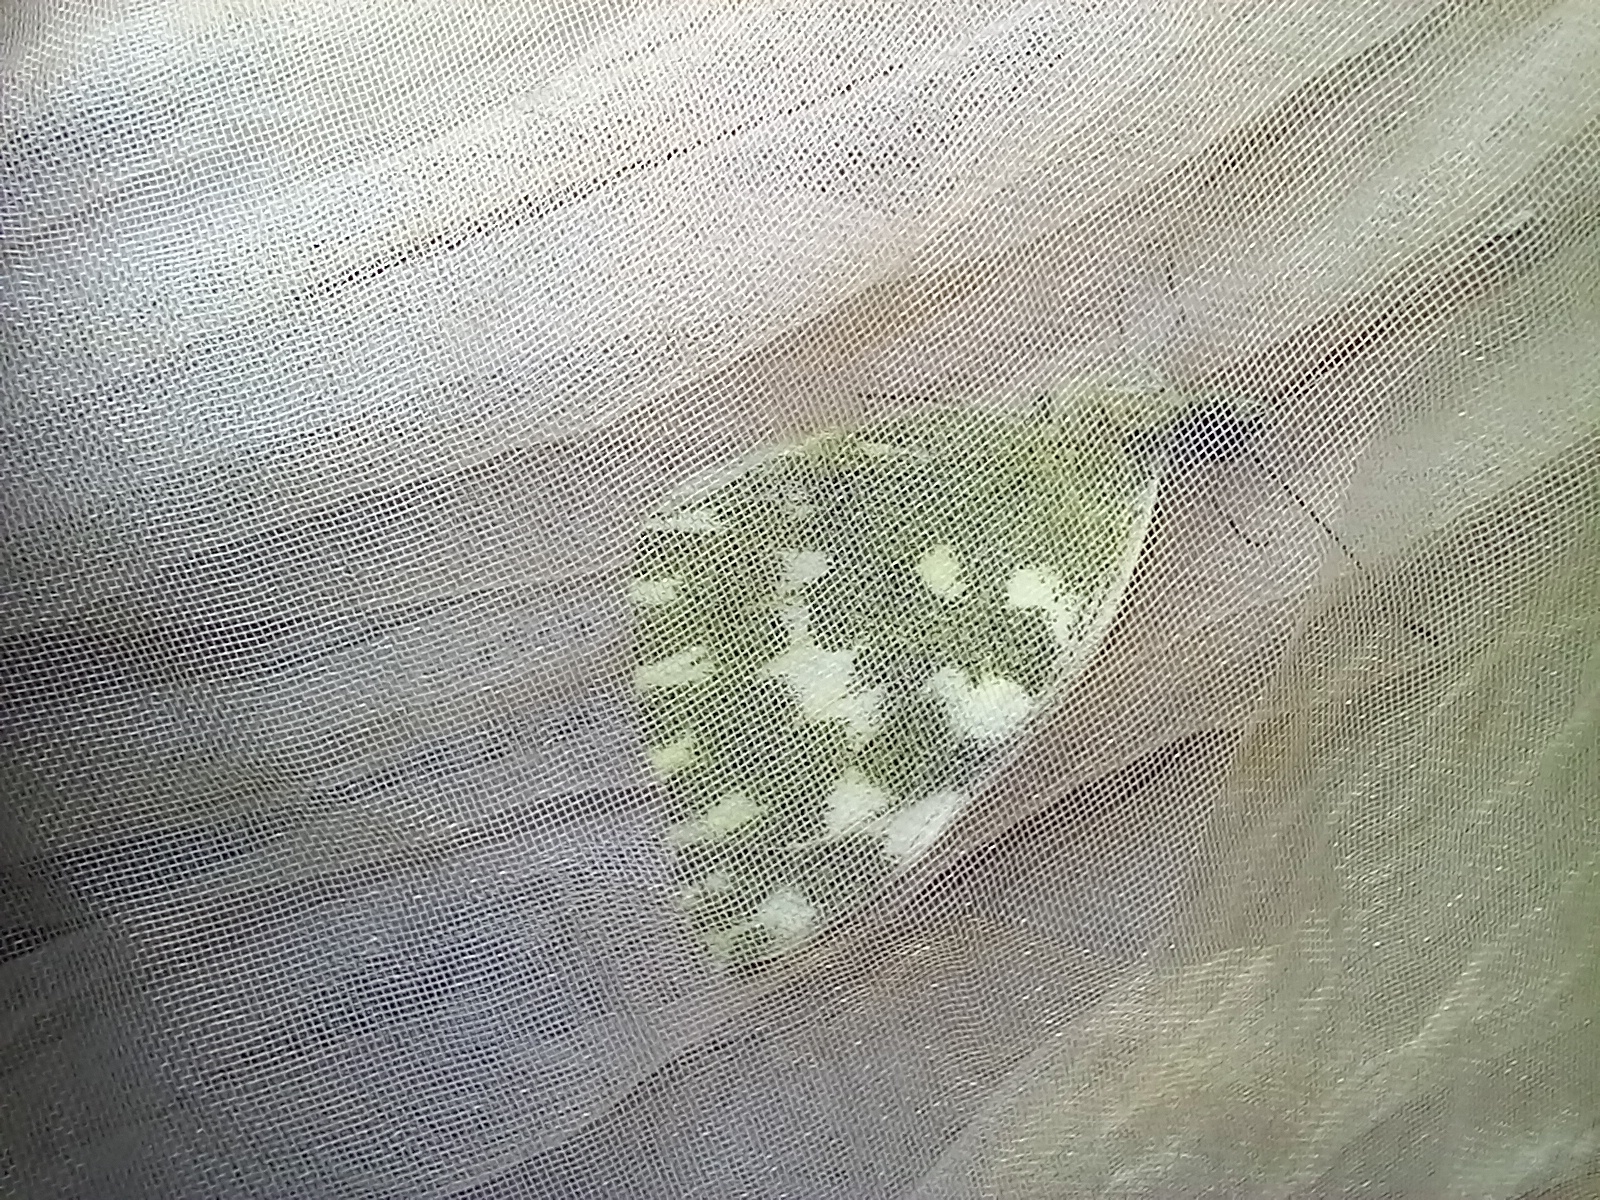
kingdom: Animalia
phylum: Arthropoda
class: Insecta
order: Lepidoptera
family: Pieridae
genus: Pontia
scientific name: Pontia daplidice
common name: Bath white
